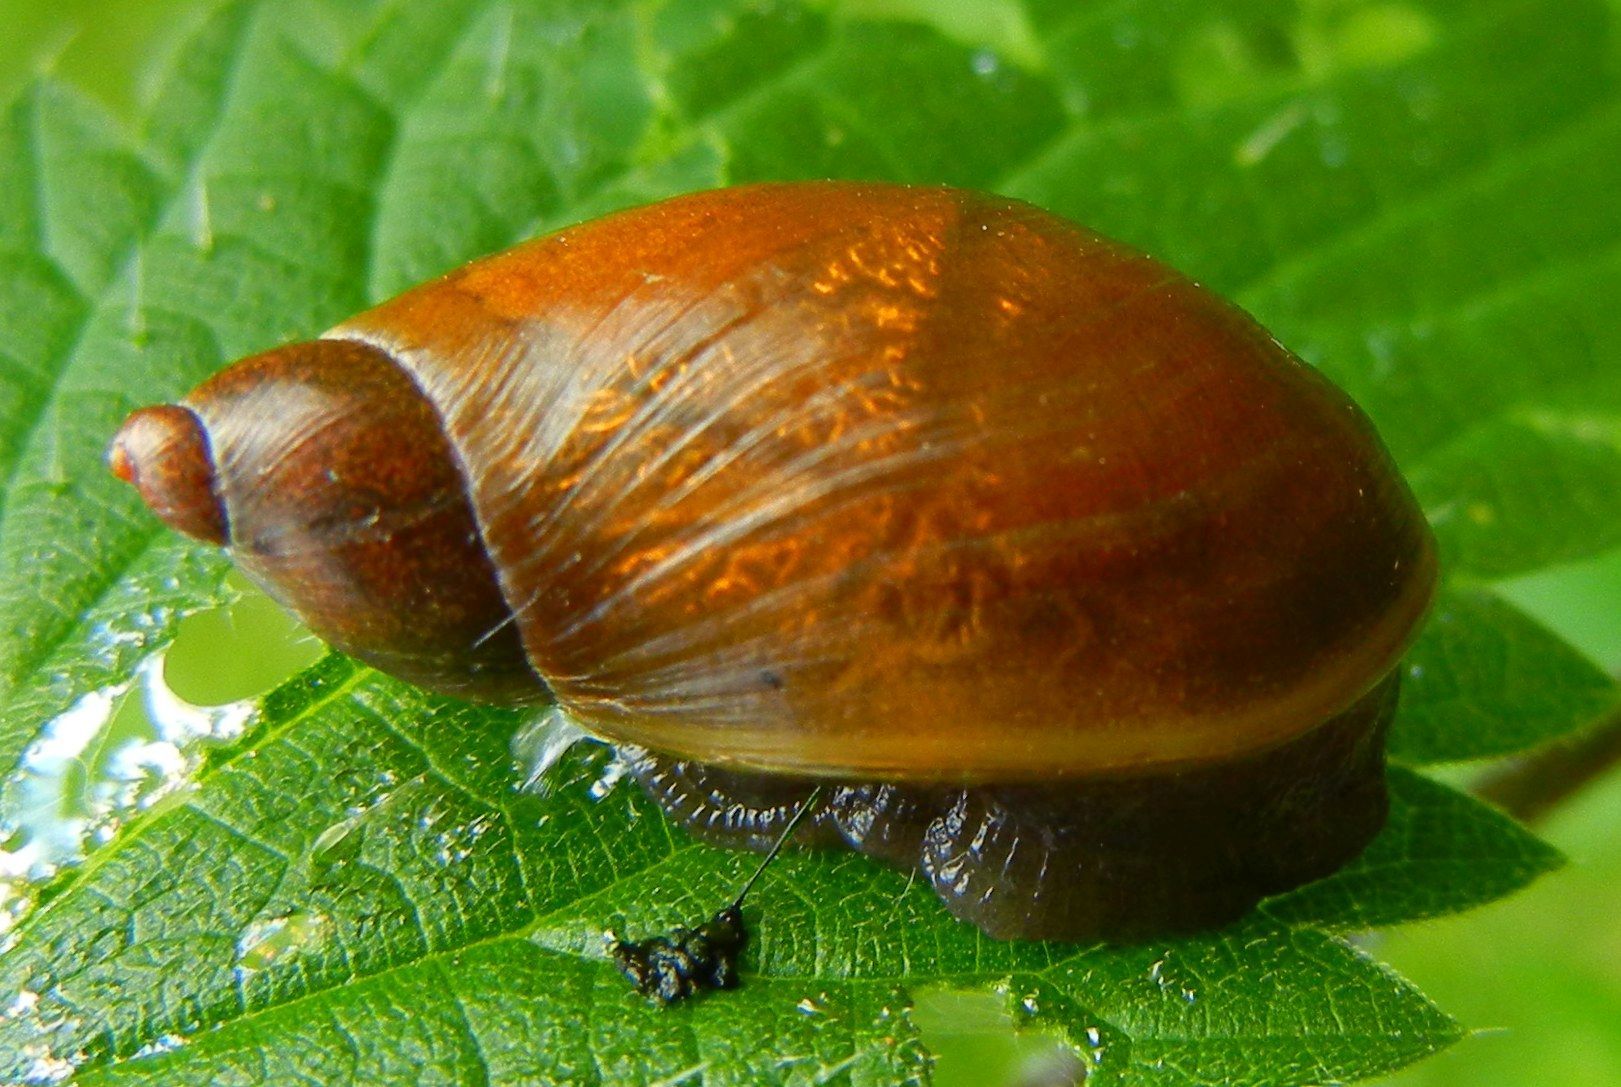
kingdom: Animalia
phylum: Mollusca
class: Gastropoda
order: Stylommatophora
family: Succineidae
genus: Succinea
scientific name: Succinea putris
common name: European ambersnail
